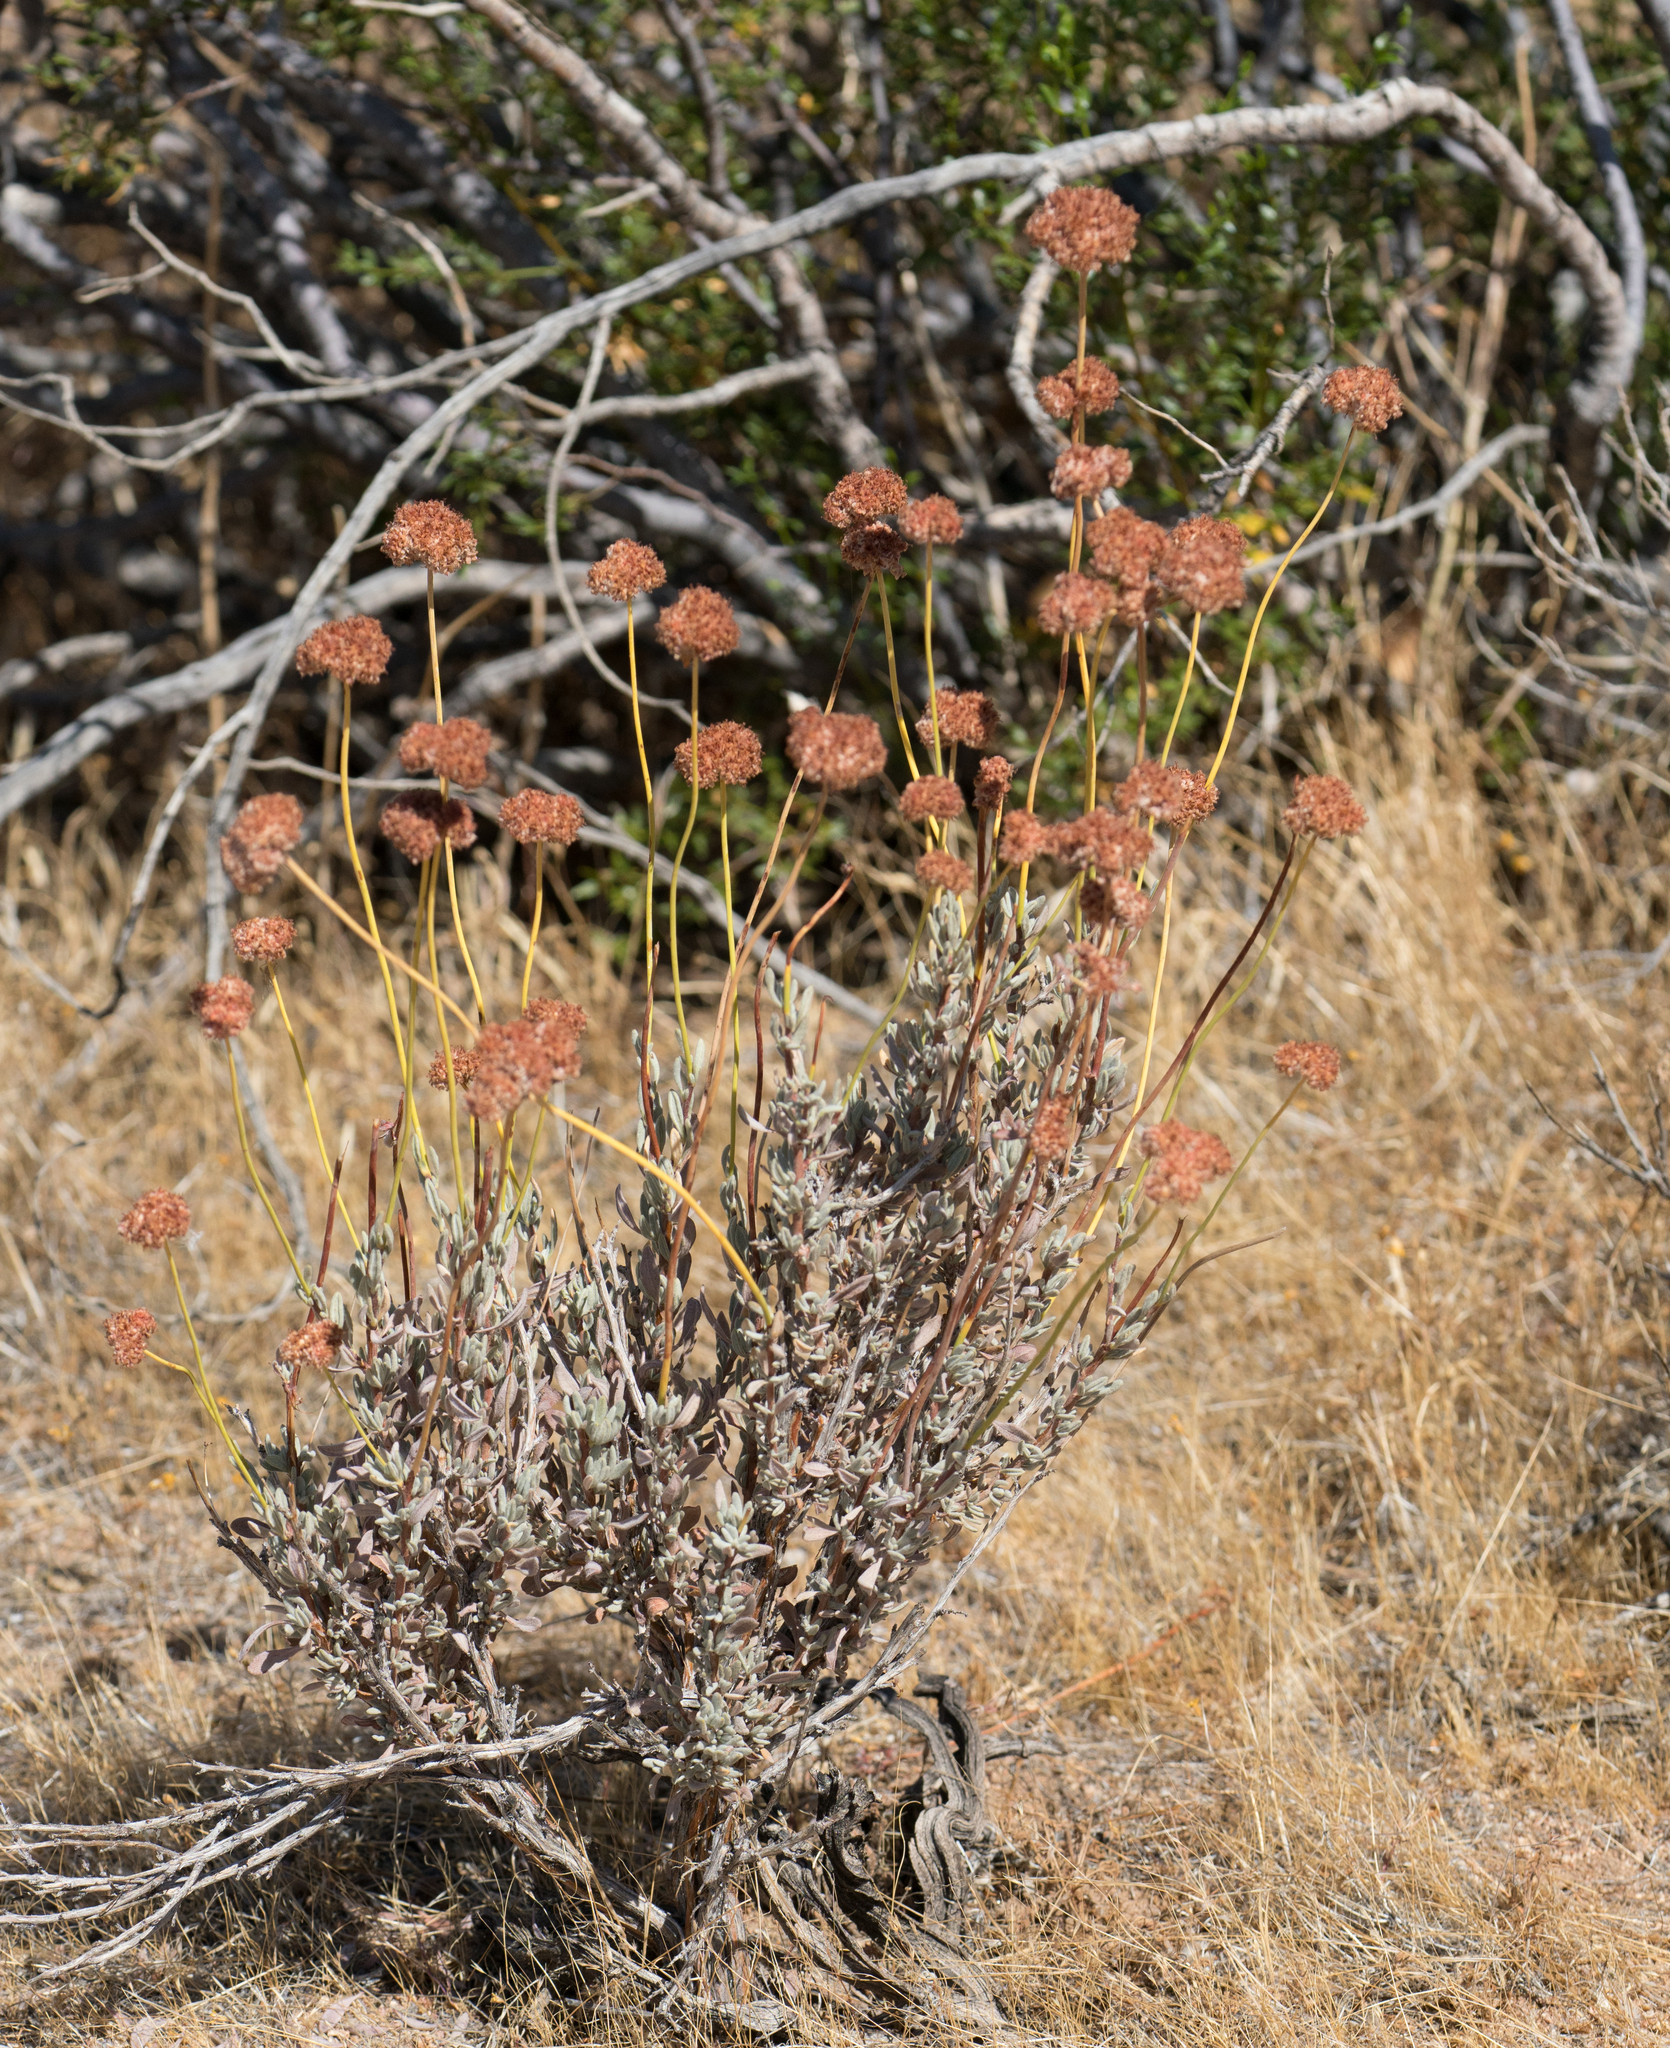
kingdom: Plantae
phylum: Tracheophyta
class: Magnoliopsida
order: Caryophyllales
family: Polygonaceae
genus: Eriogonum
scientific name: Eriogonum fasciculatum
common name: California wild buckwheat
